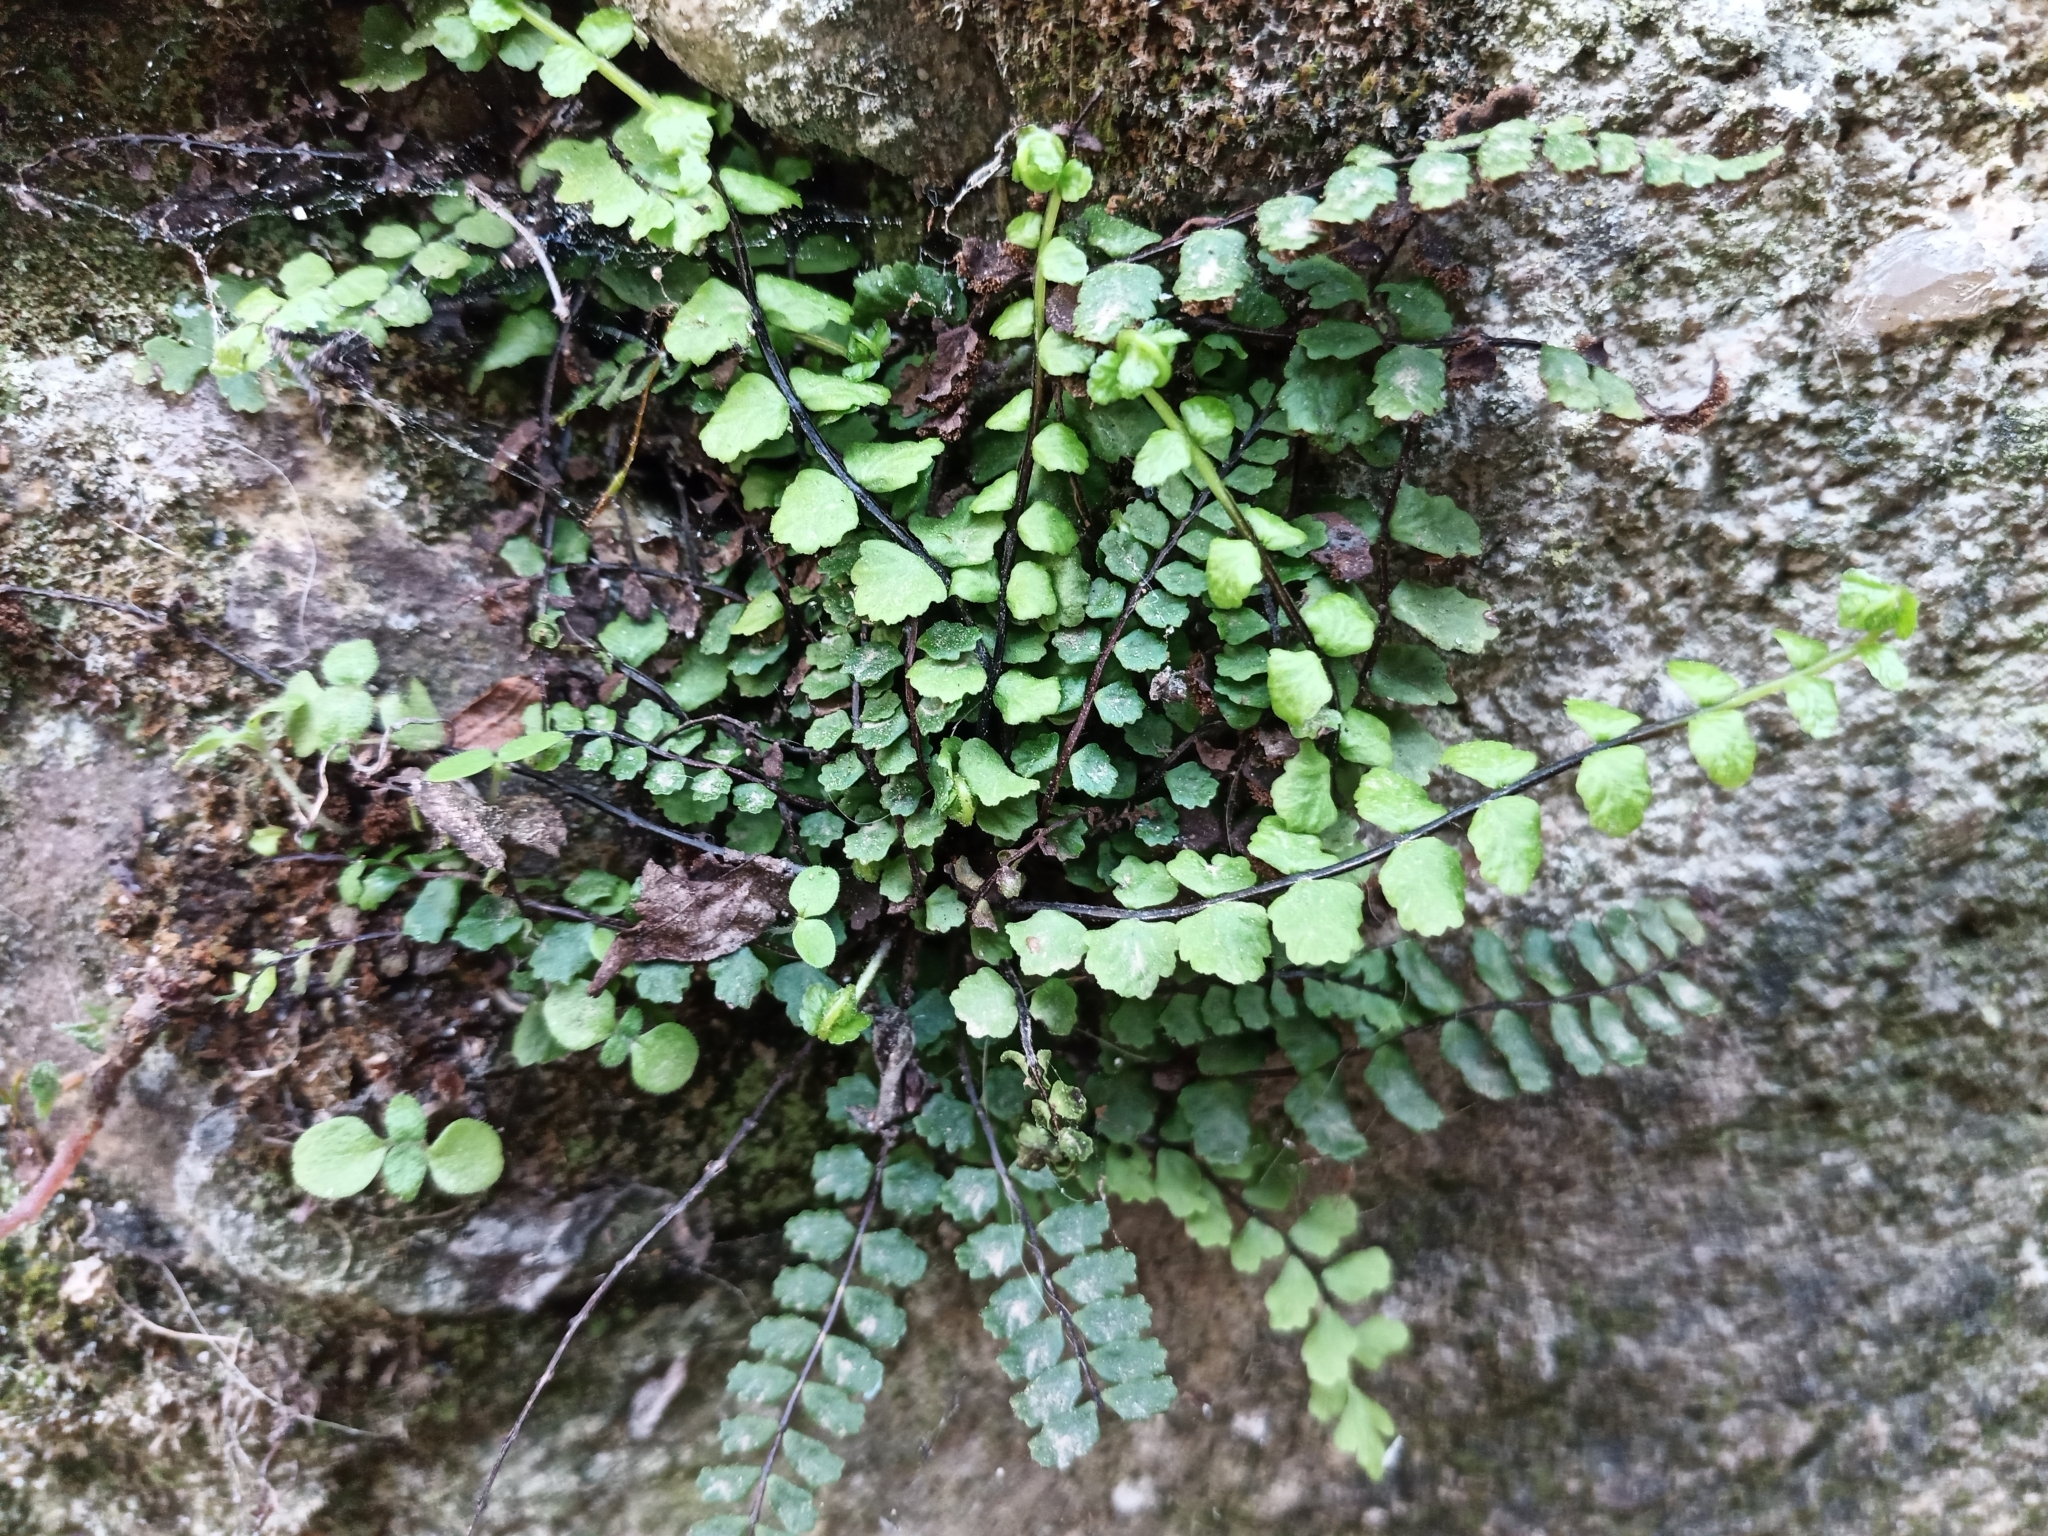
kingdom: Plantae
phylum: Tracheophyta
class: Polypodiopsida
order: Polypodiales
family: Aspleniaceae
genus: Asplenium
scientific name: Asplenium trichomanes
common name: Maidenhair spleenwort
